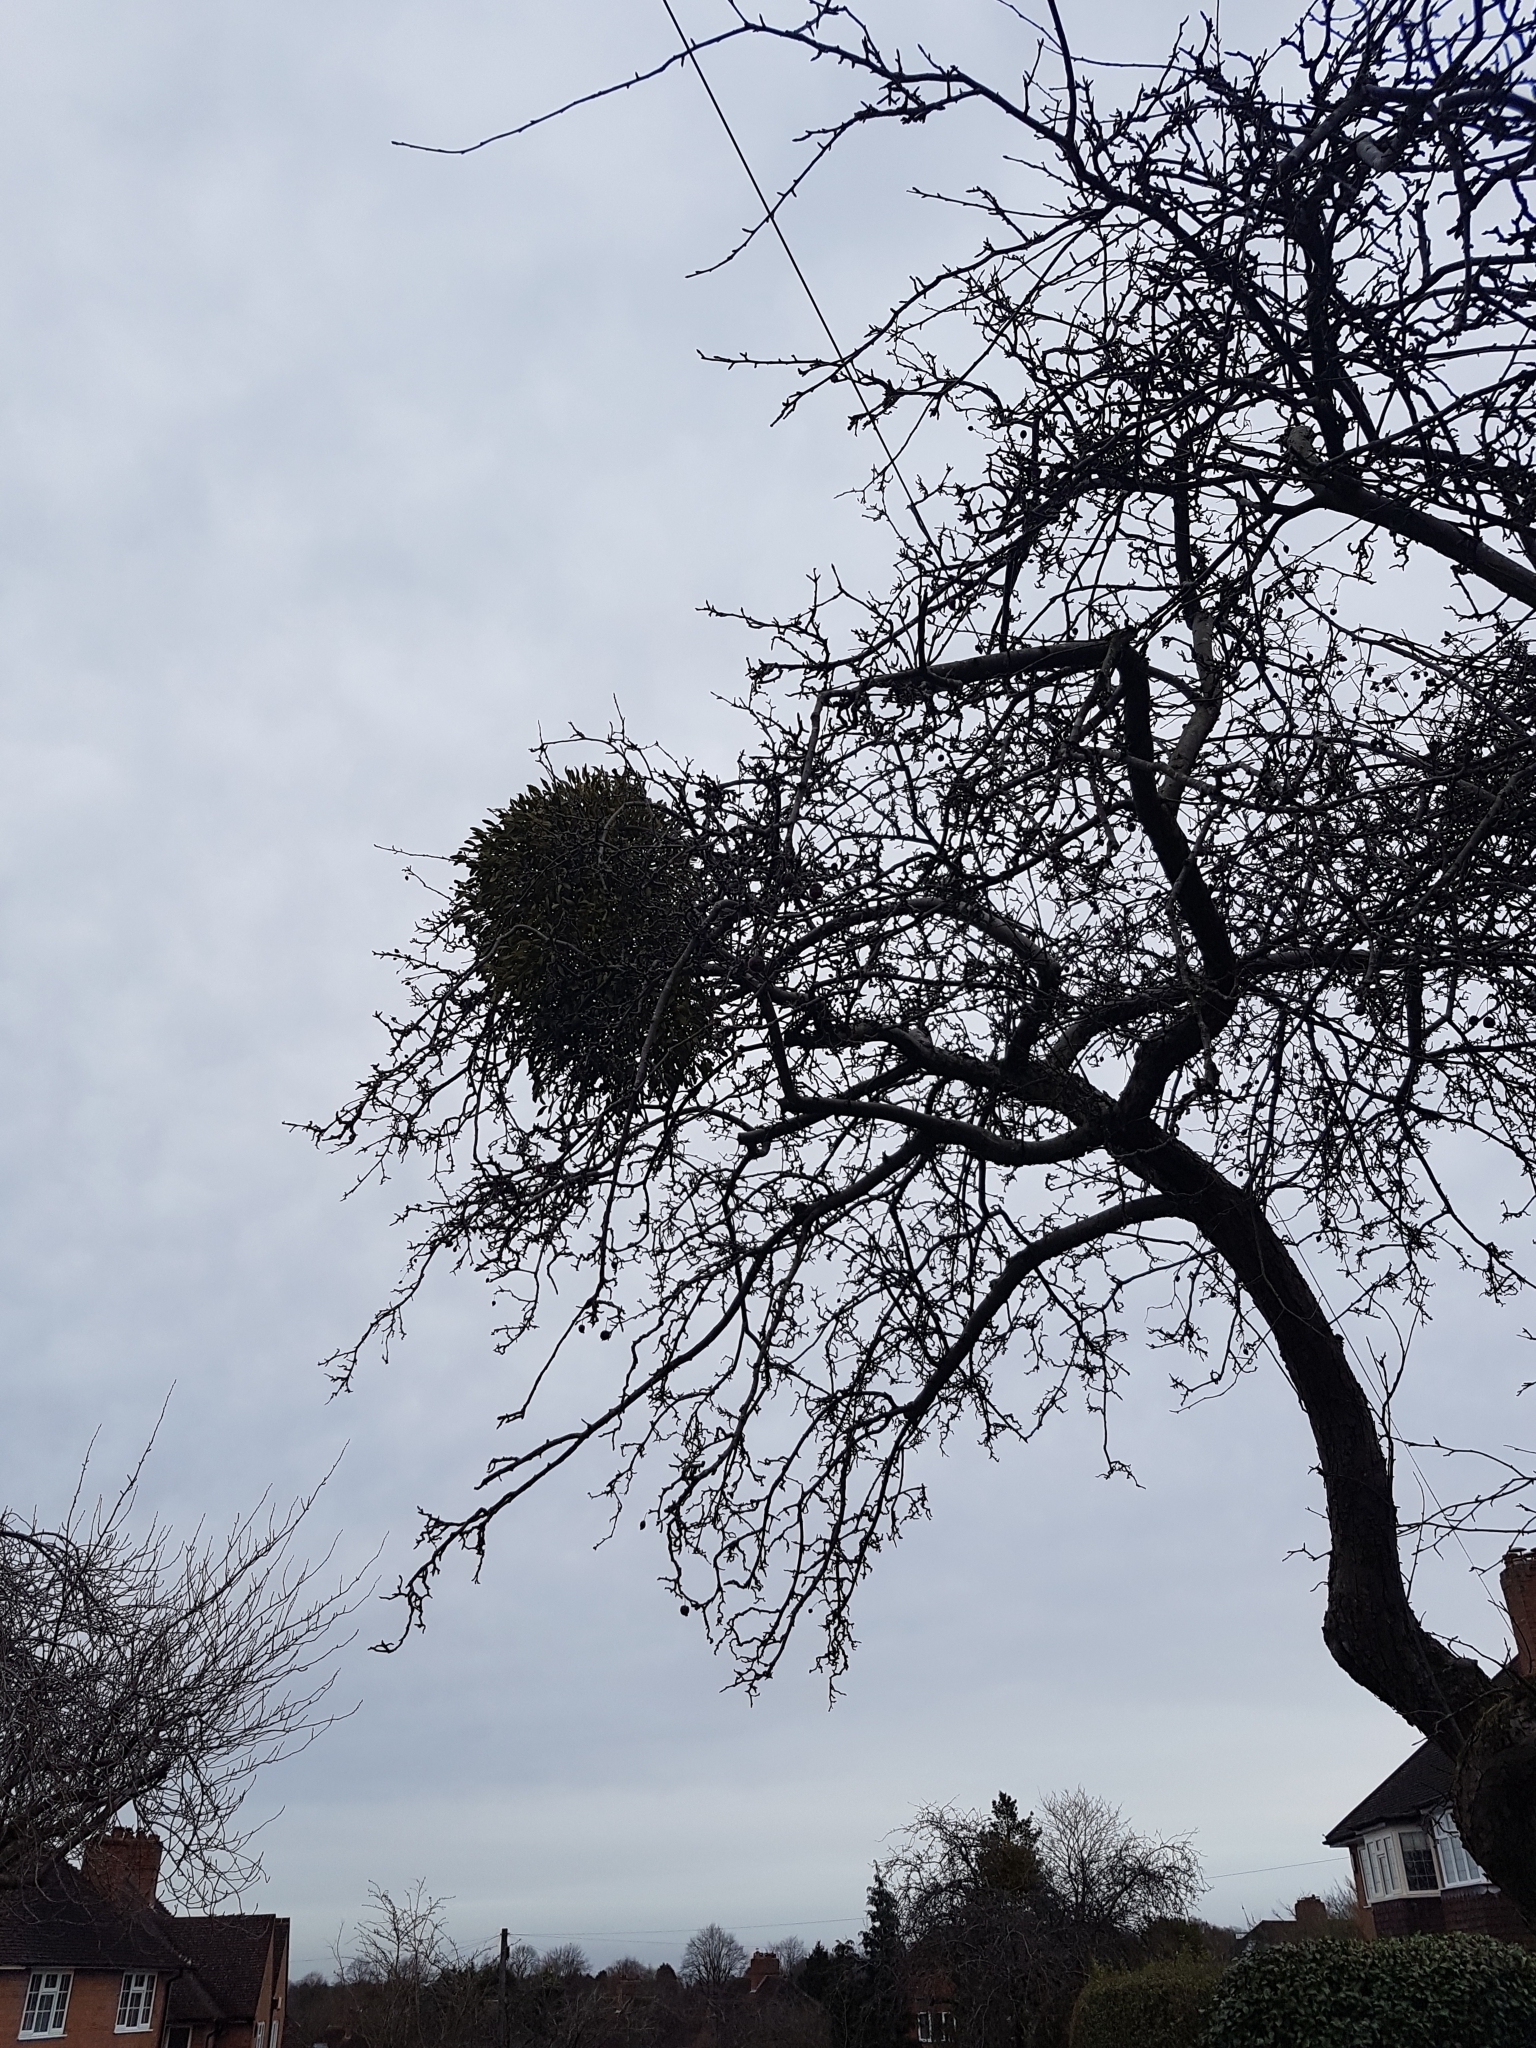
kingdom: Plantae
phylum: Tracheophyta
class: Magnoliopsida
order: Santalales
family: Viscaceae
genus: Viscum
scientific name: Viscum album
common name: Mistletoe
